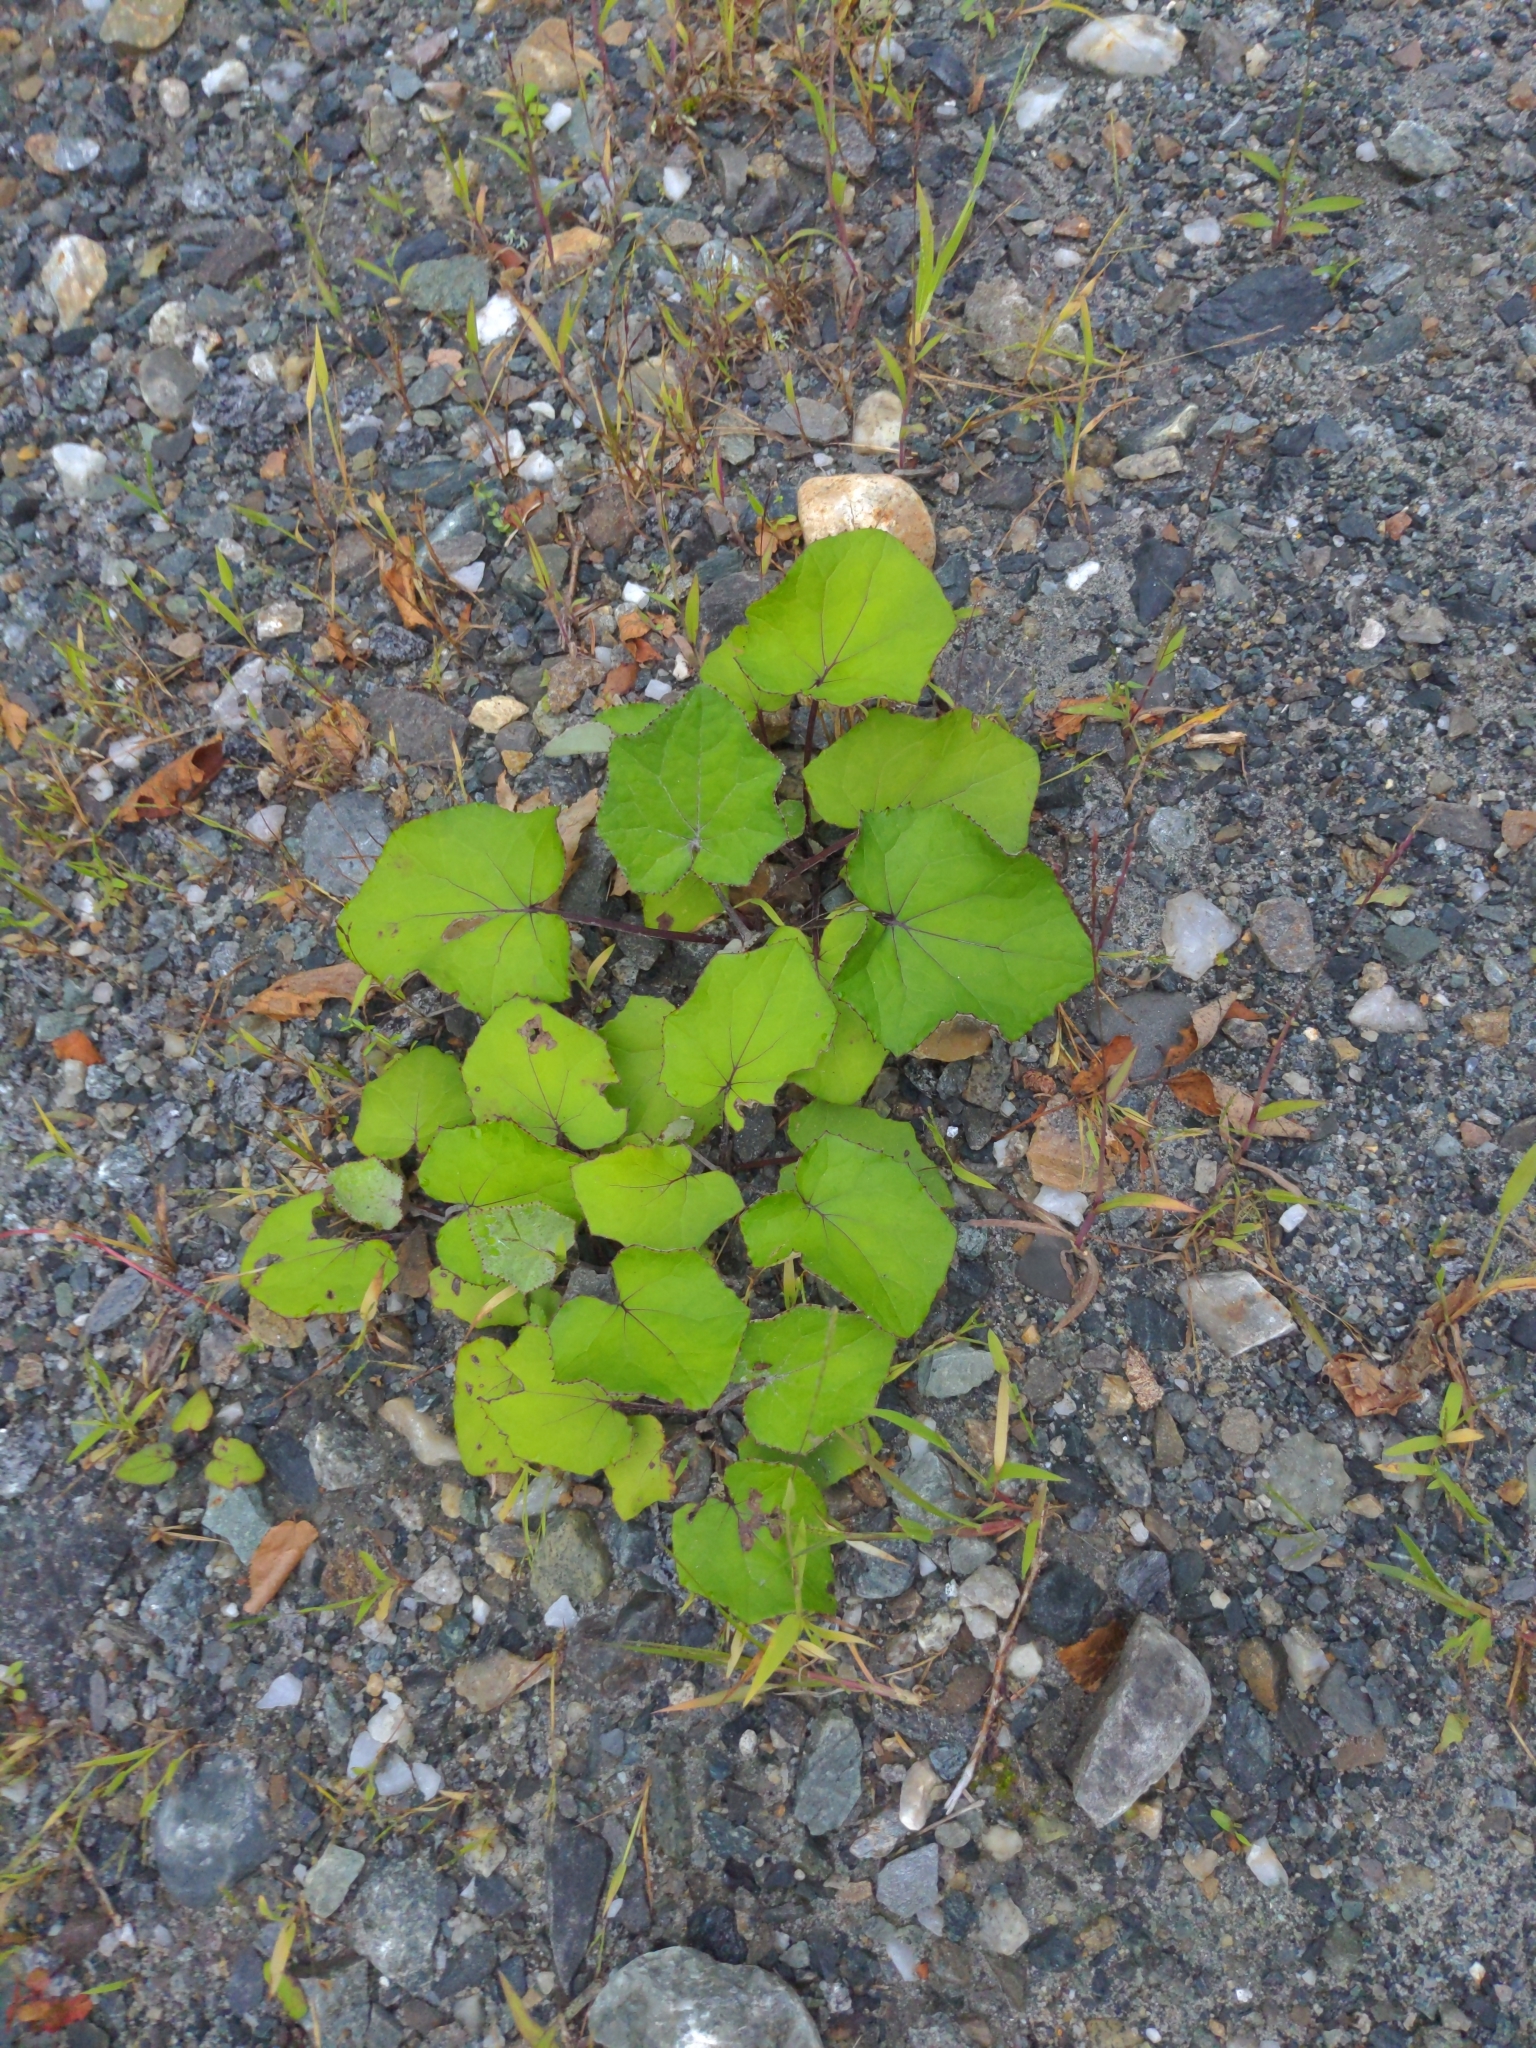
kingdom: Plantae
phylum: Tracheophyta
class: Magnoliopsida
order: Asterales
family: Asteraceae
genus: Tussilago
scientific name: Tussilago farfara
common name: Coltsfoot
